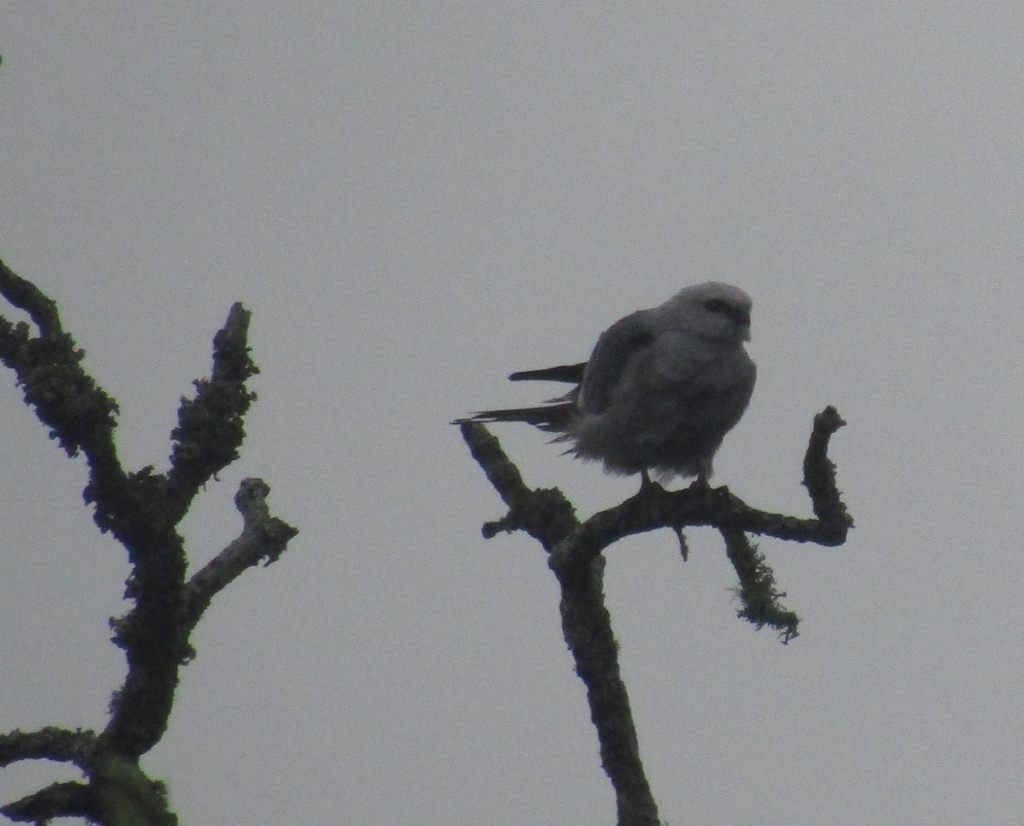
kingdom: Animalia
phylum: Chordata
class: Aves
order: Accipitriformes
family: Accipitridae
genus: Ictinia
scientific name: Ictinia mississippiensis
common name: Mississippi kite
